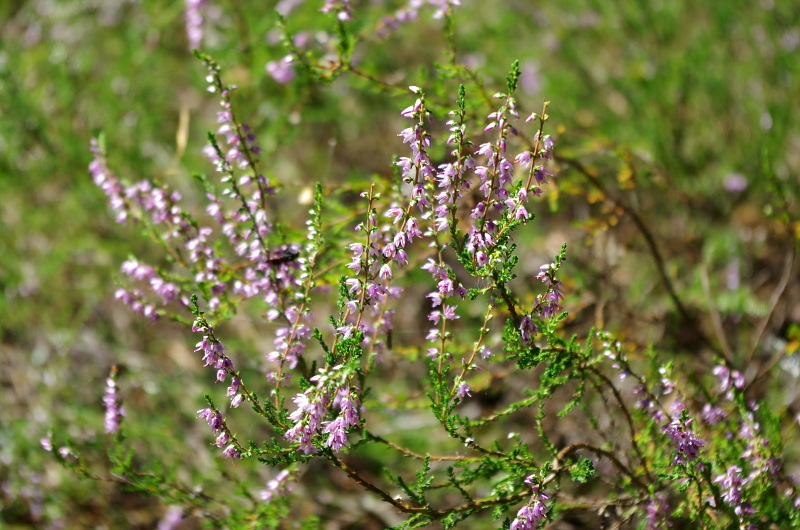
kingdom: Plantae
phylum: Tracheophyta
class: Magnoliopsida
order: Ericales
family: Ericaceae
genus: Calluna
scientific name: Calluna vulgaris
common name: Heather
